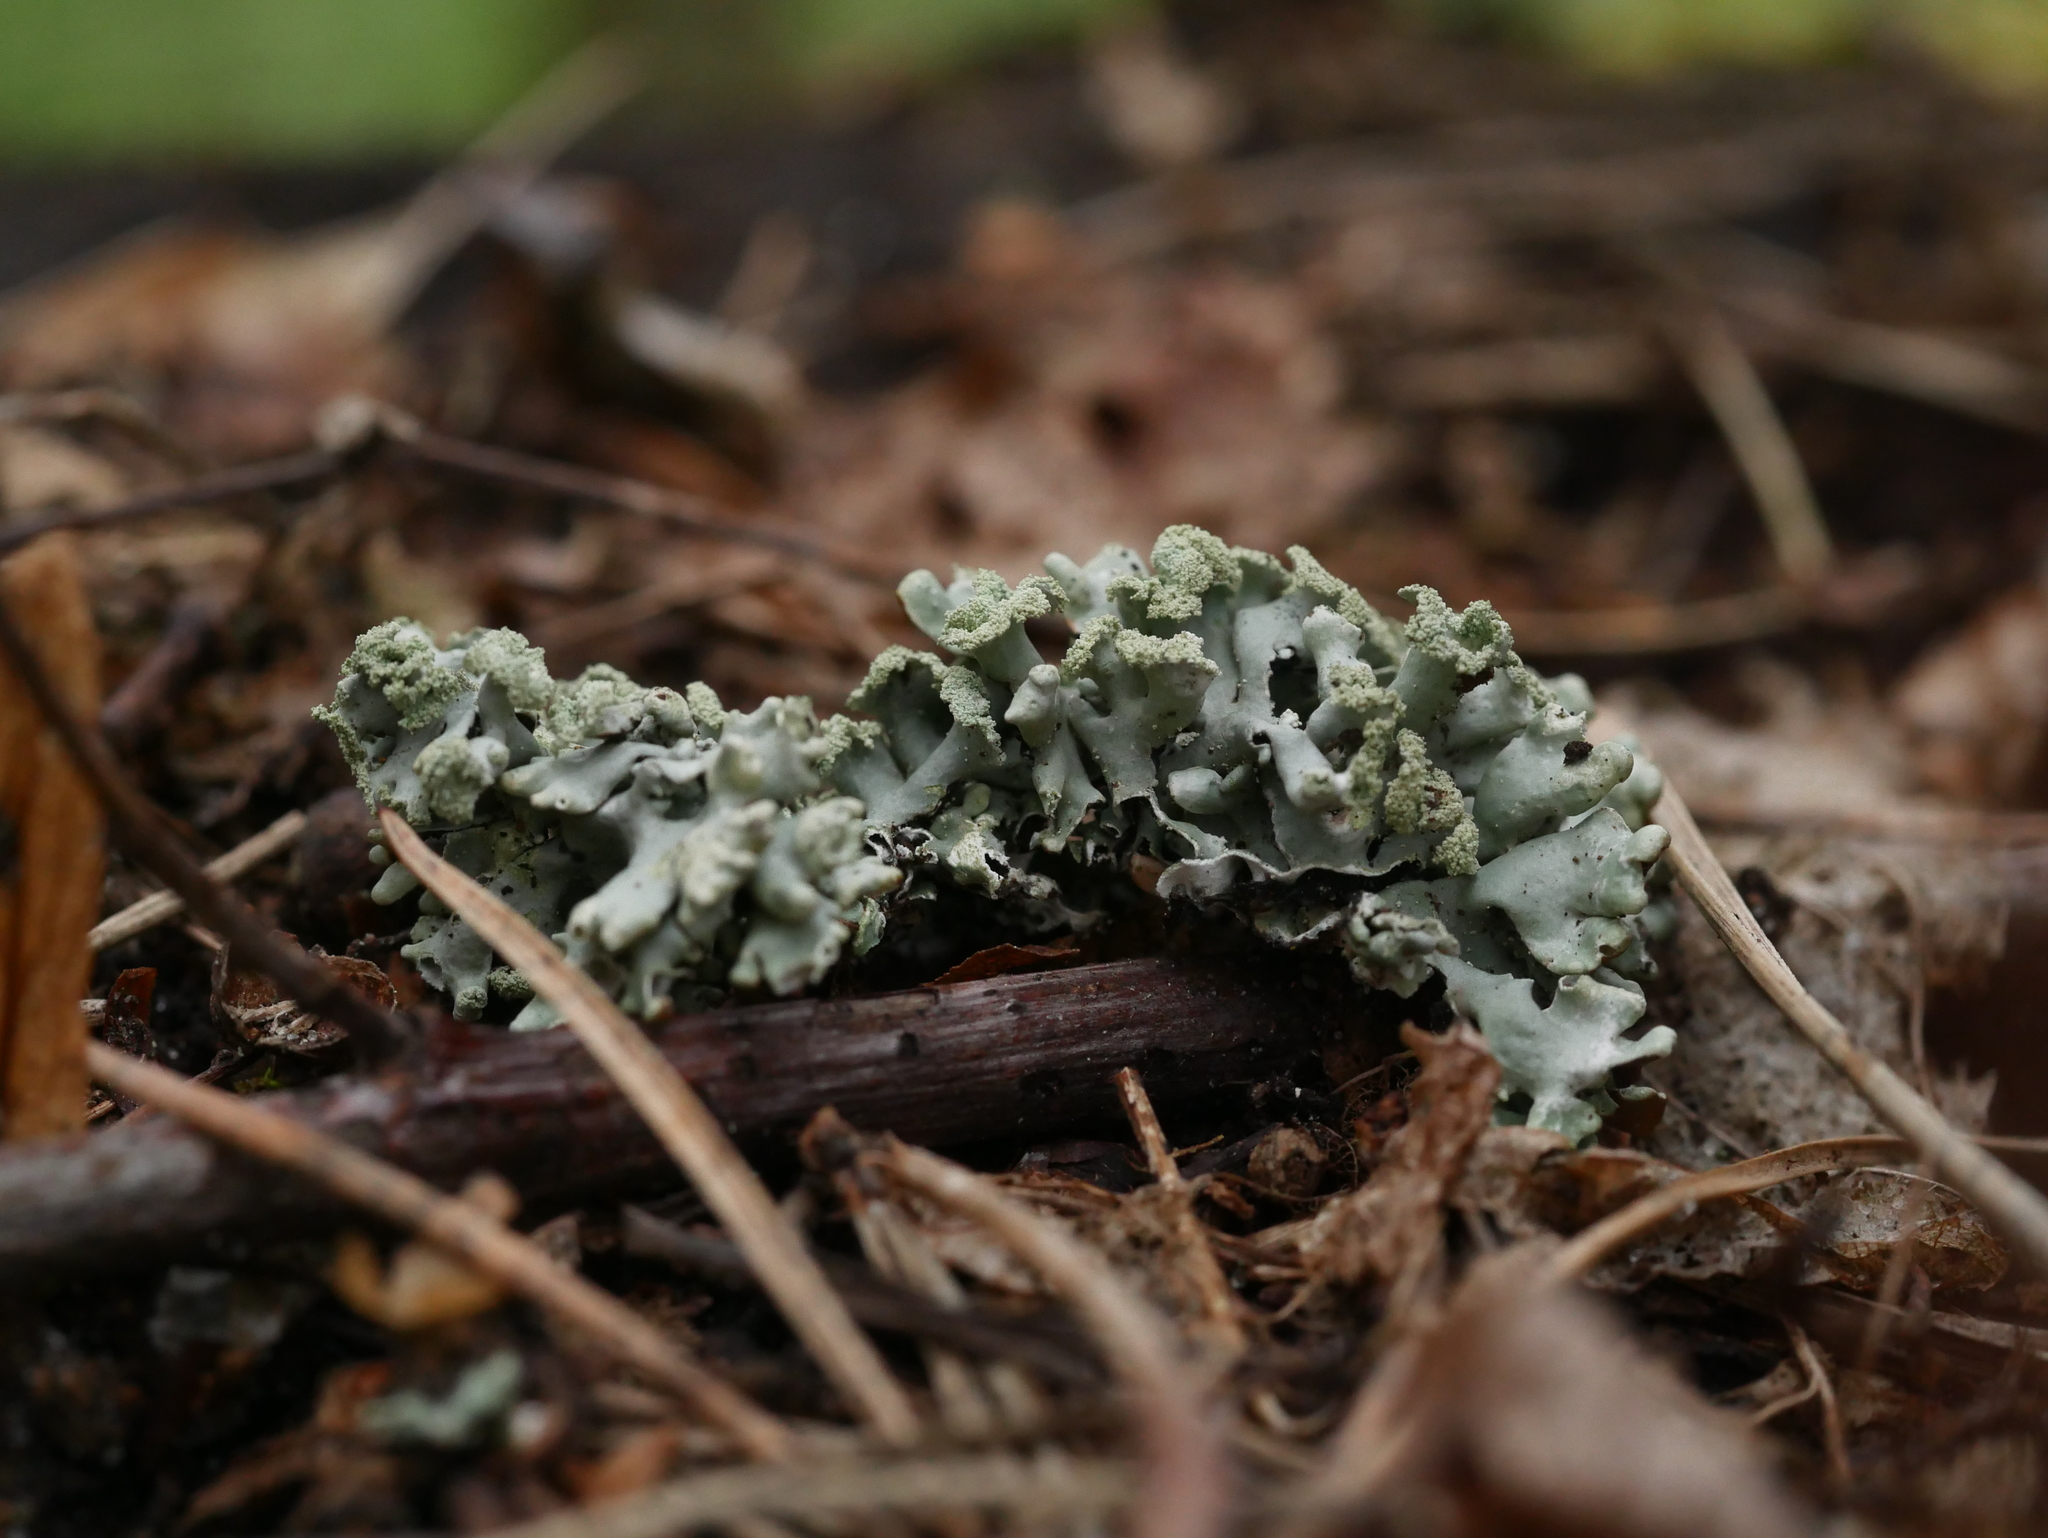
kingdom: Fungi
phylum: Ascomycota
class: Lecanoromycetes
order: Lecanorales
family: Parmeliaceae
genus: Hypogymnia
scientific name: Hypogymnia physodes
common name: Dark crottle
